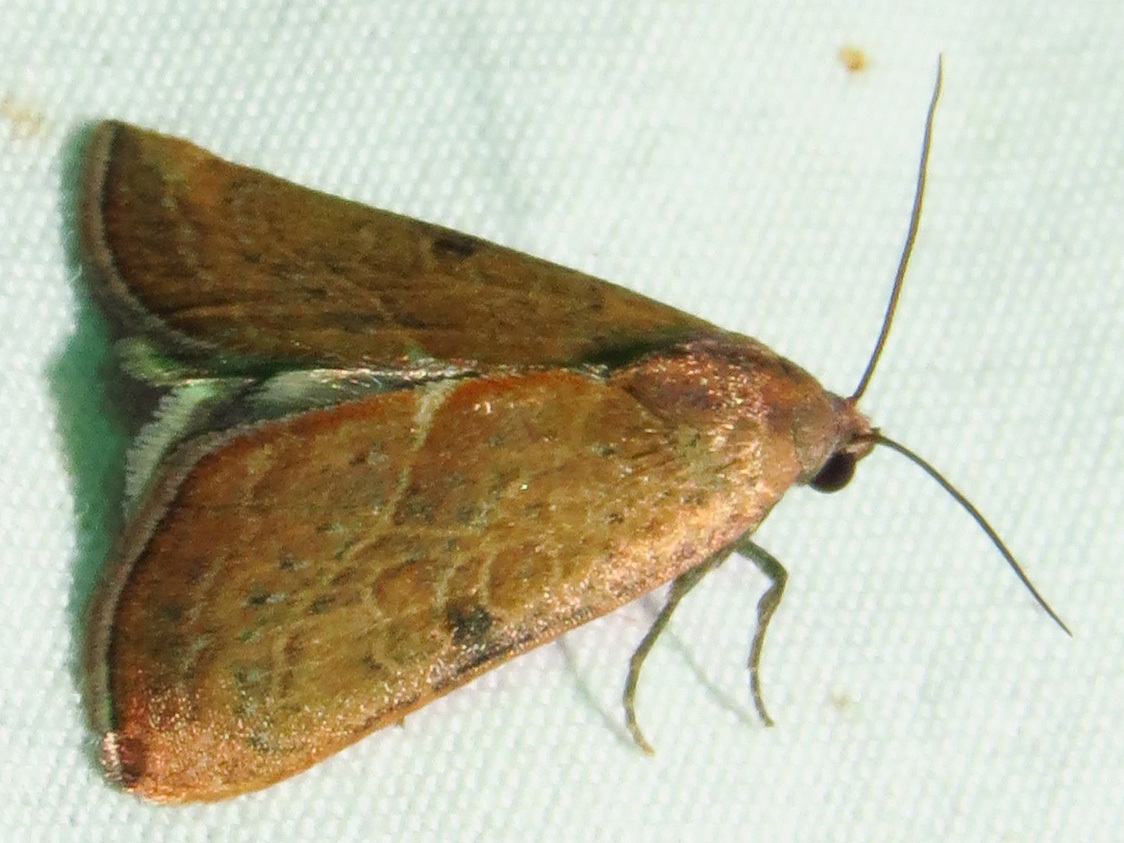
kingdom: Animalia
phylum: Arthropoda
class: Insecta
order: Lepidoptera
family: Noctuidae
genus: Galgula
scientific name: Galgula partita
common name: Wedgeling
